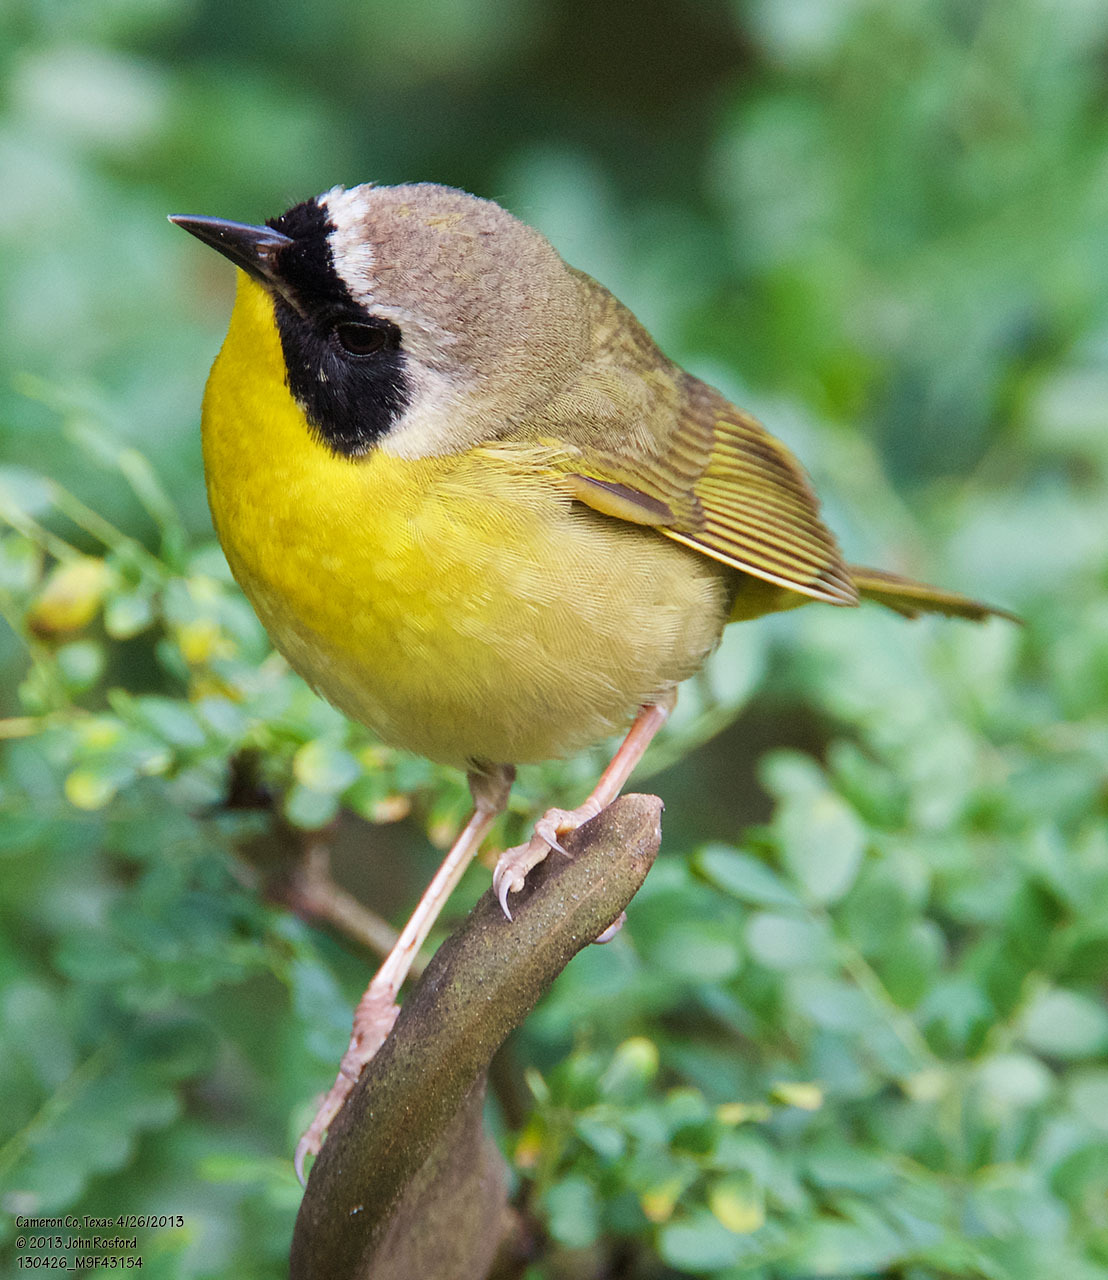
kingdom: Animalia
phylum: Chordata
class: Aves
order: Passeriformes
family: Parulidae
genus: Geothlypis
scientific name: Geothlypis trichas
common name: Common yellowthroat
